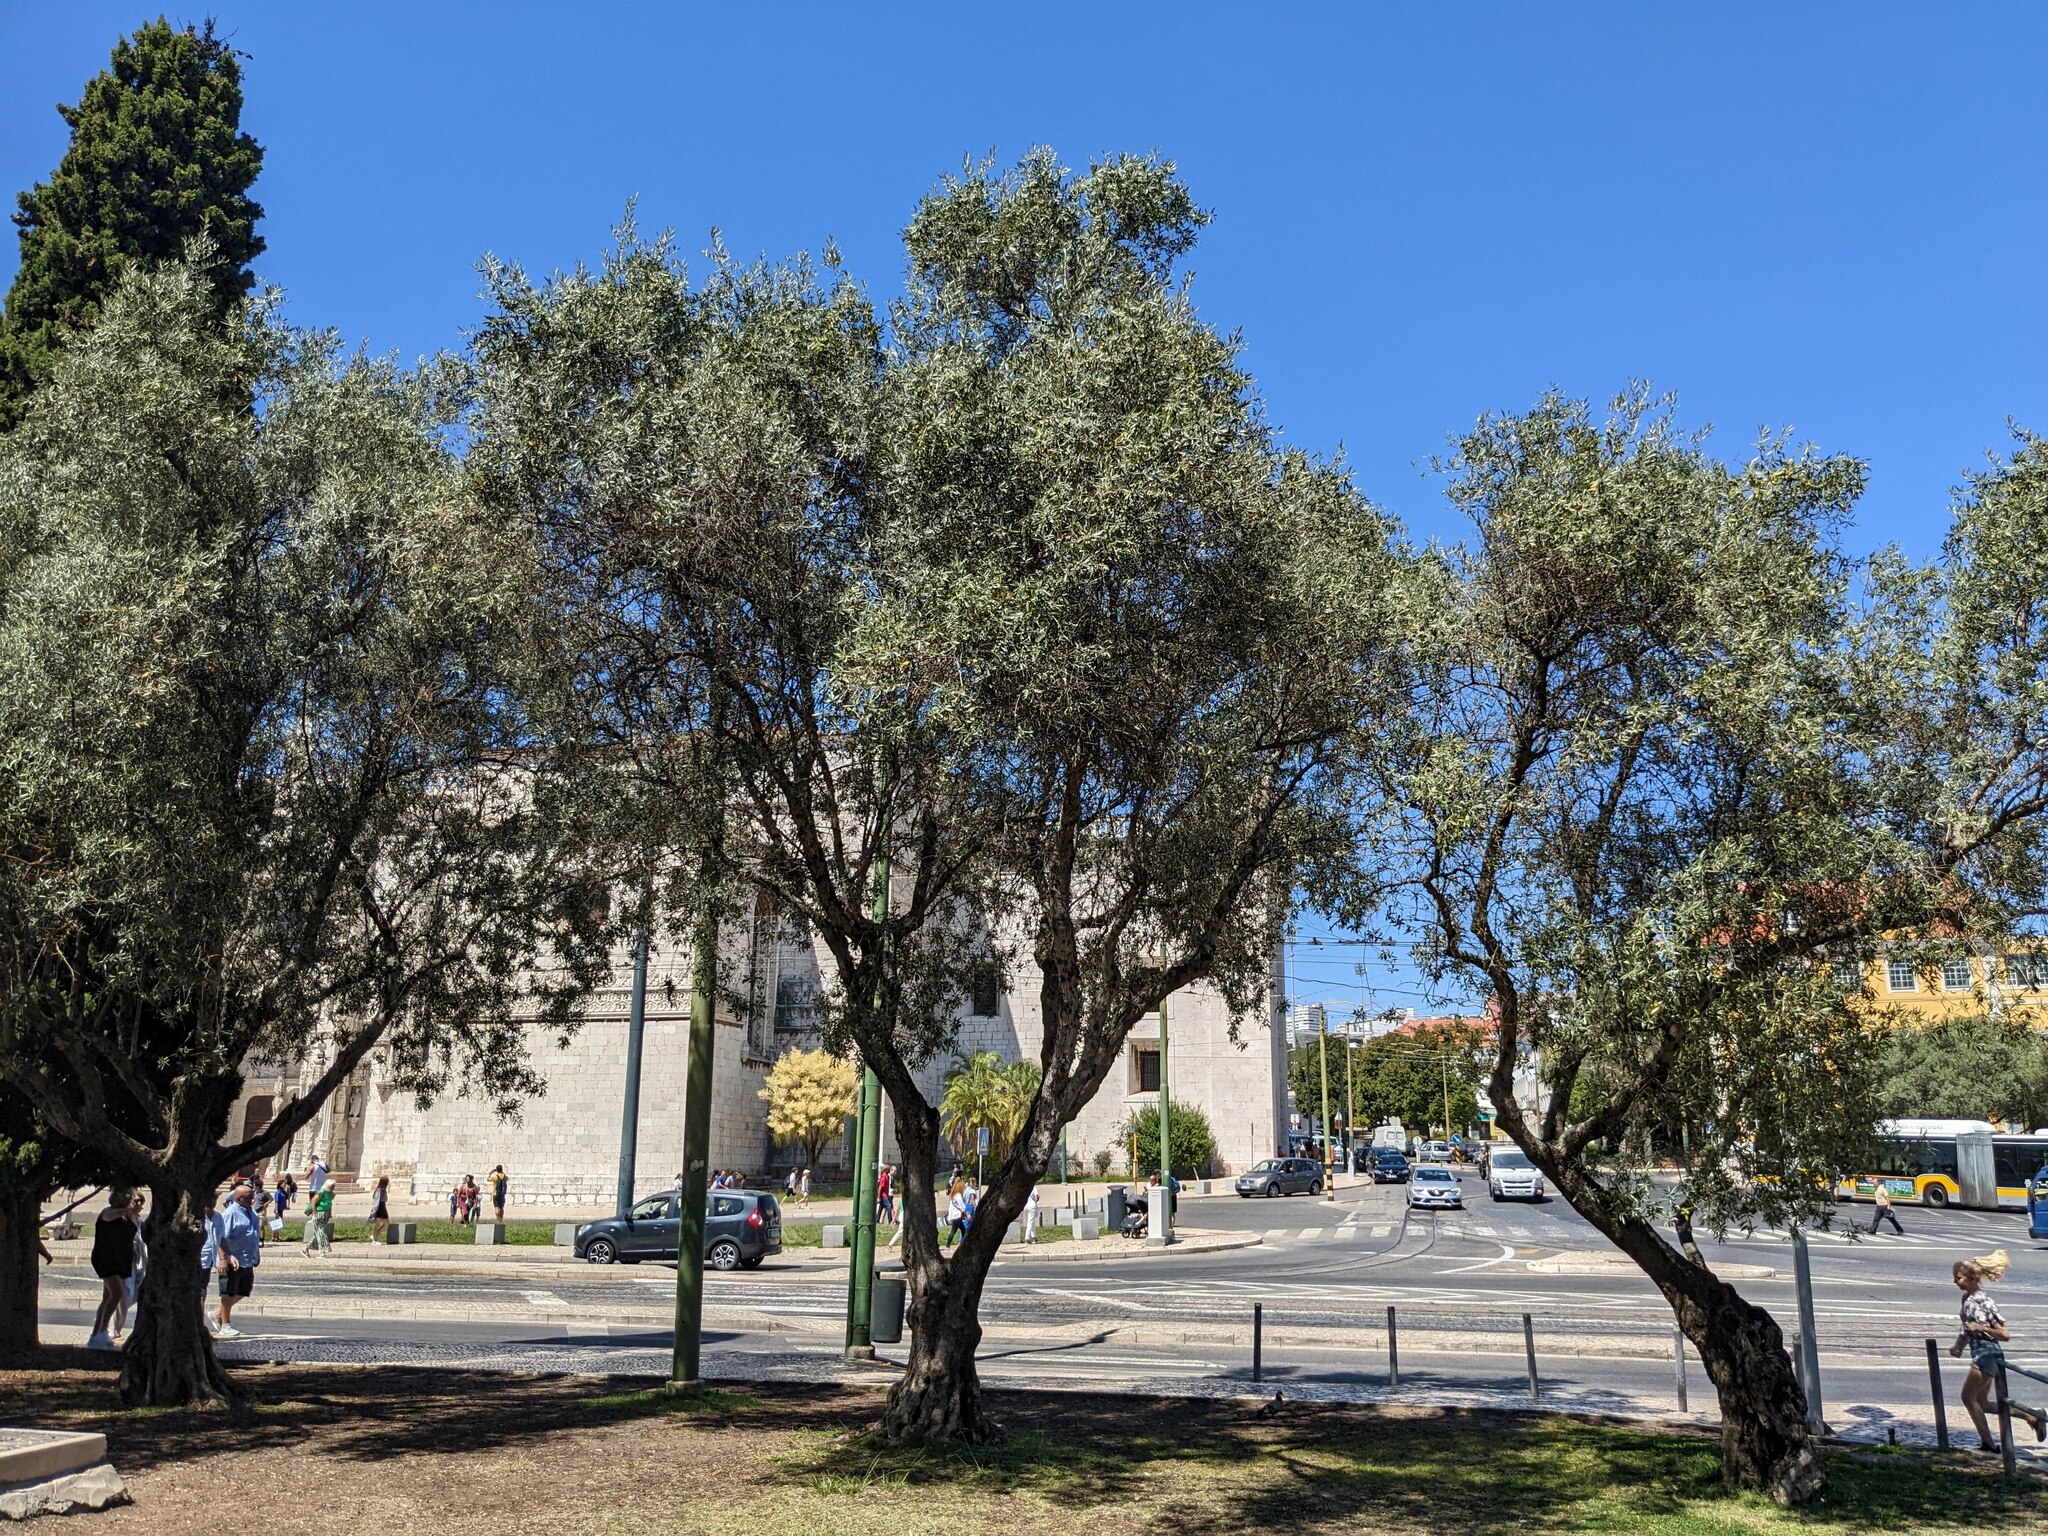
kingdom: Plantae
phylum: Tracheophyta
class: Magnoliopsida
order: Lamiales
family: Oleaceae
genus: Olea
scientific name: Olea europaea
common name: Olive
